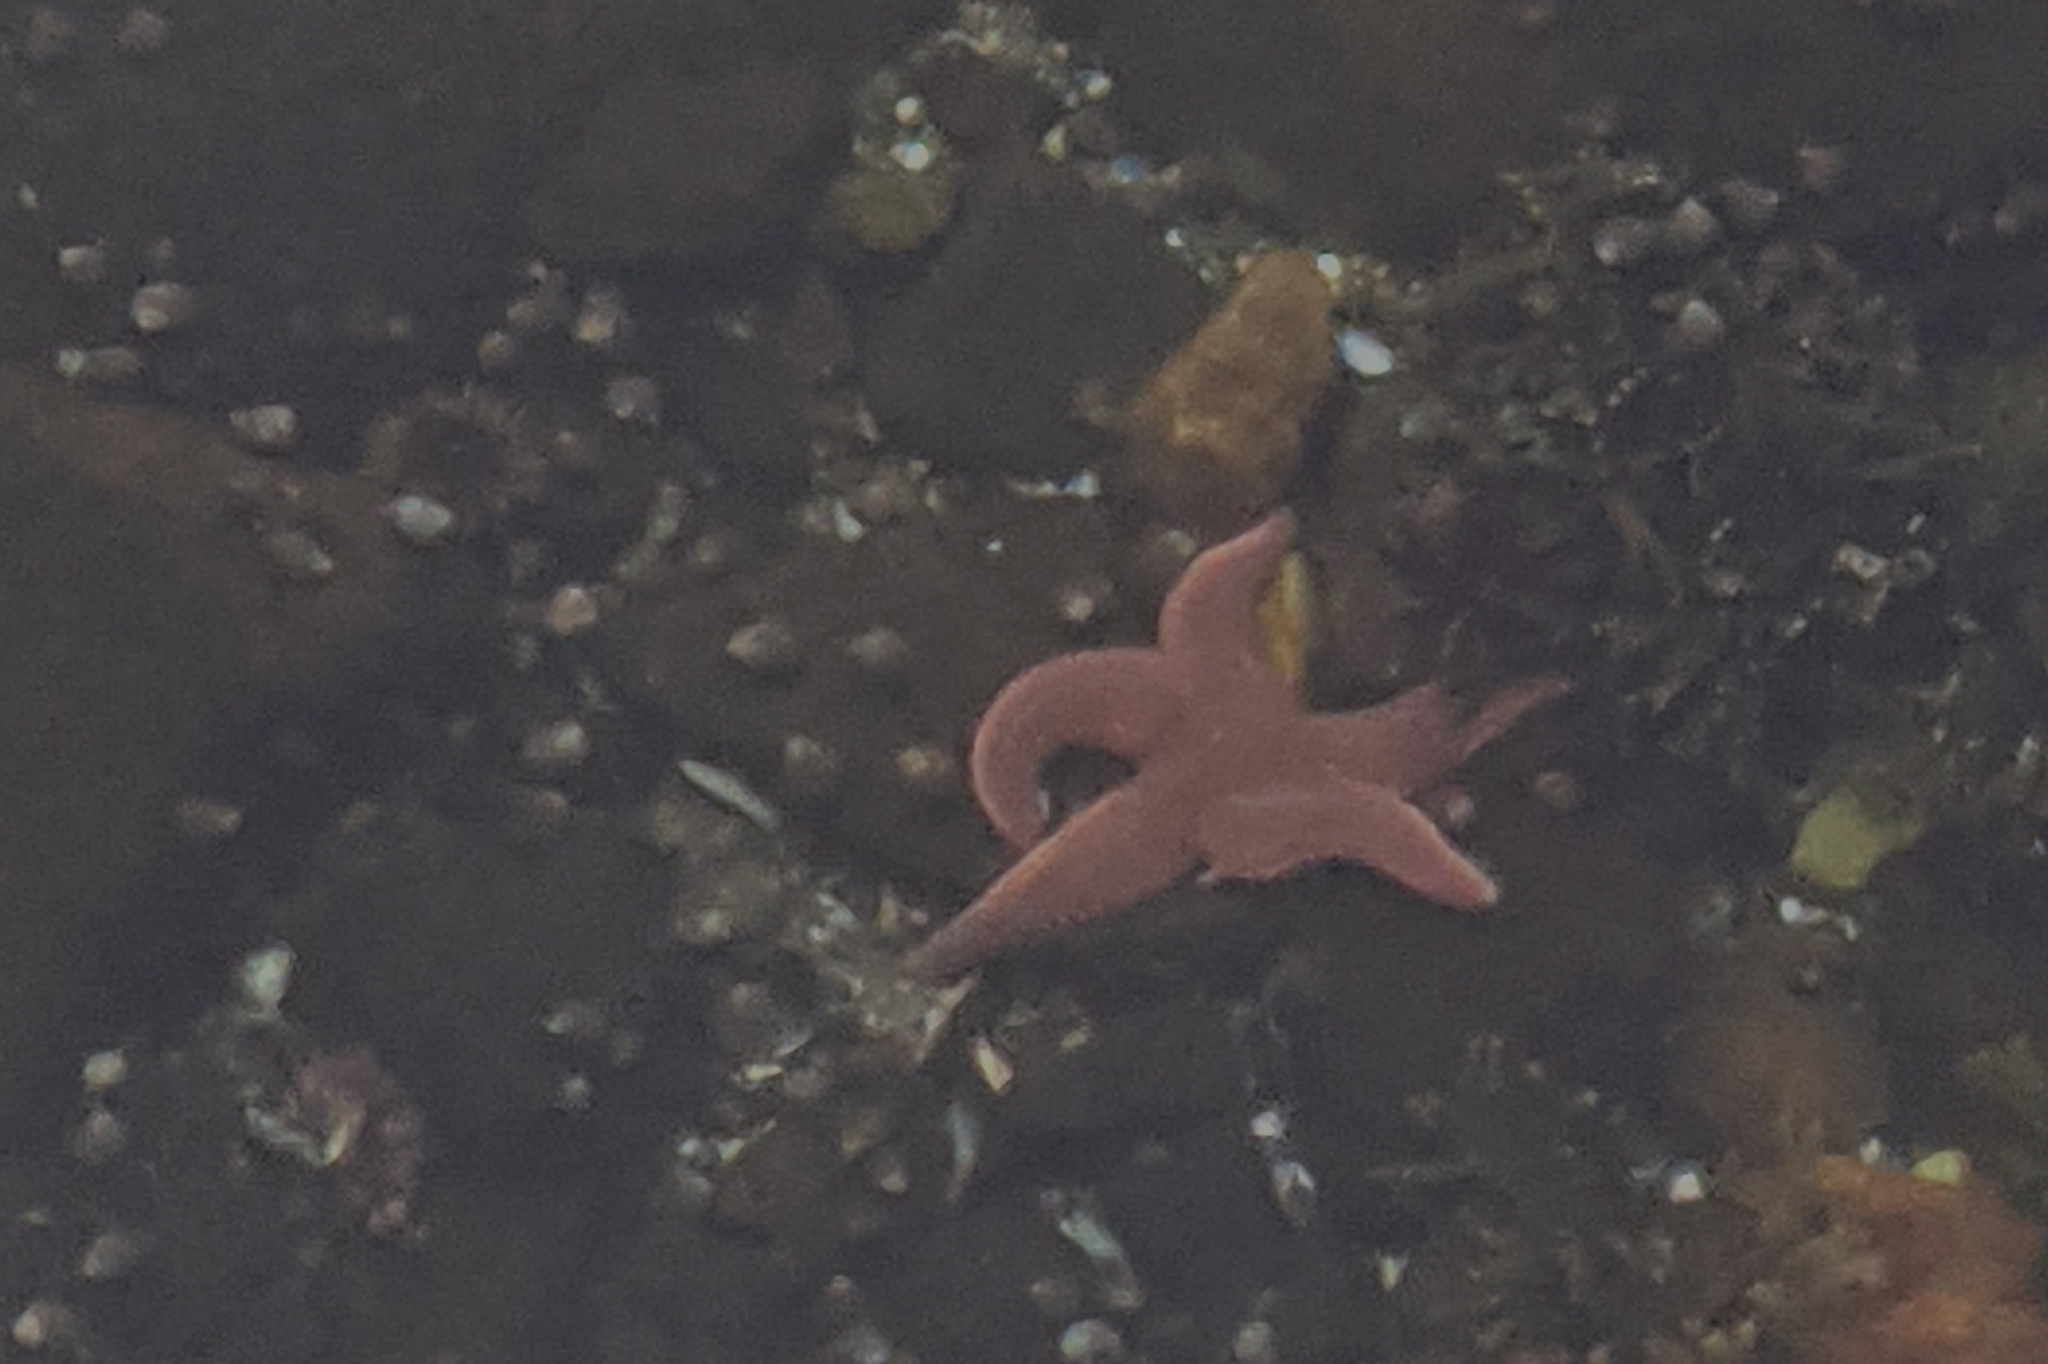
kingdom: Animalia
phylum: Echinodermata
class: Asteroidea
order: Forcipulatida
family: Asteriidae
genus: Asterias
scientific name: Asterias rubens
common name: Common starfish
